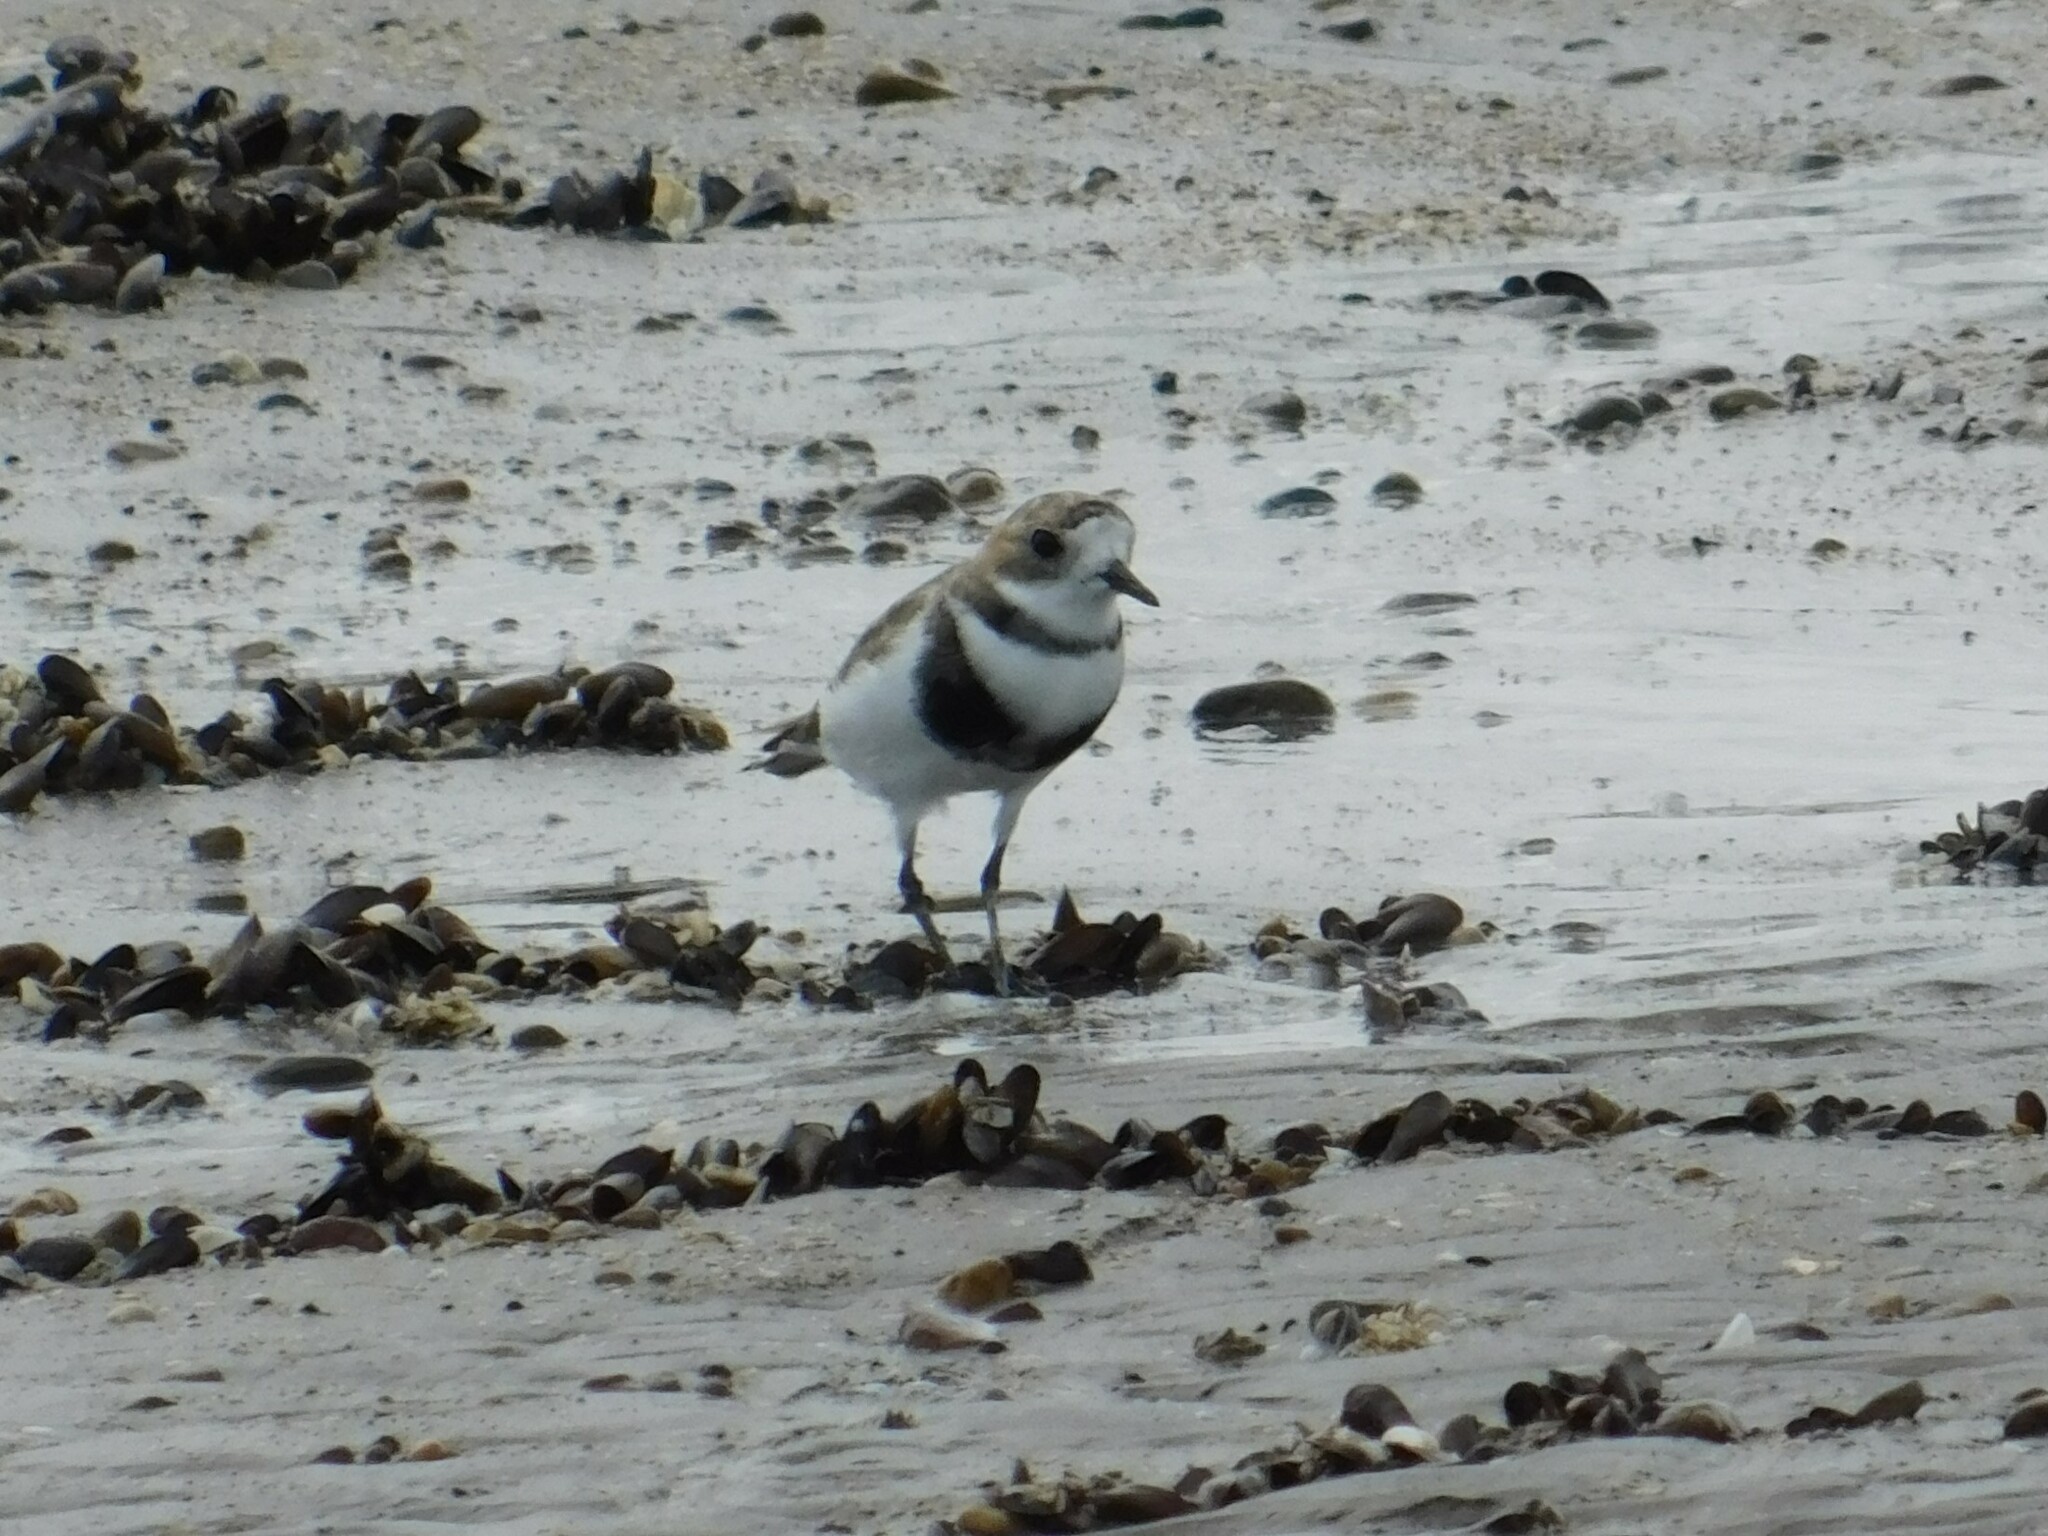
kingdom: Animalia
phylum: Chordata
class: Aves
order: Charadriiformes
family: Charadriidae
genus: Anarhynchus
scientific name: Anarhynchus
